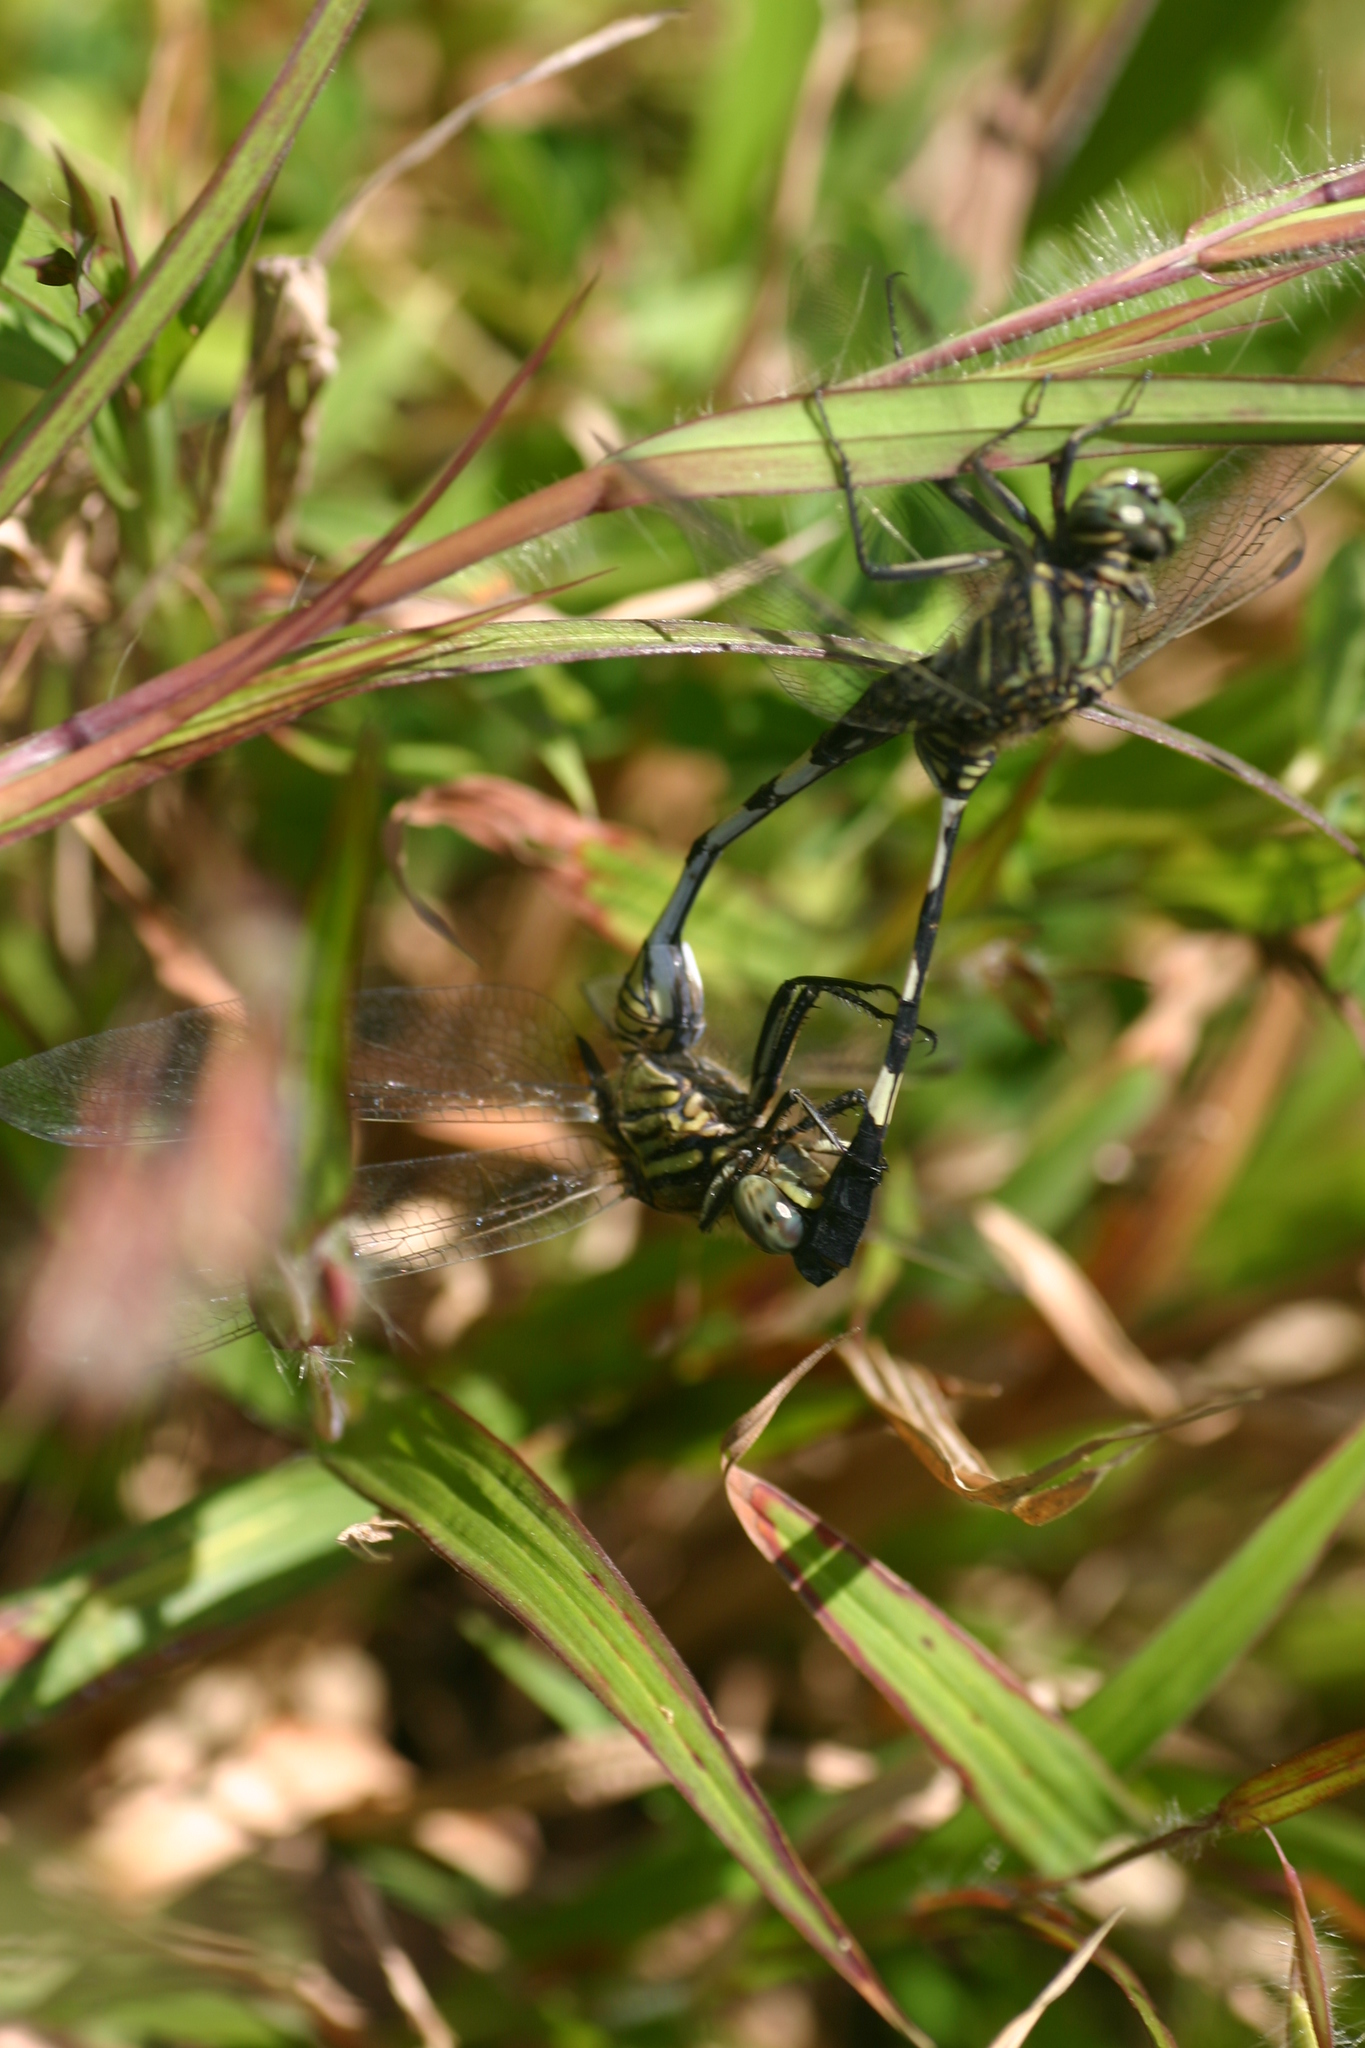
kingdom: Animalia
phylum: Arthropoda
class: Insecta
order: Odonata
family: Libellulidae
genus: Orthetrum
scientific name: Orthetrum sabina
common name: Slender skimmer
